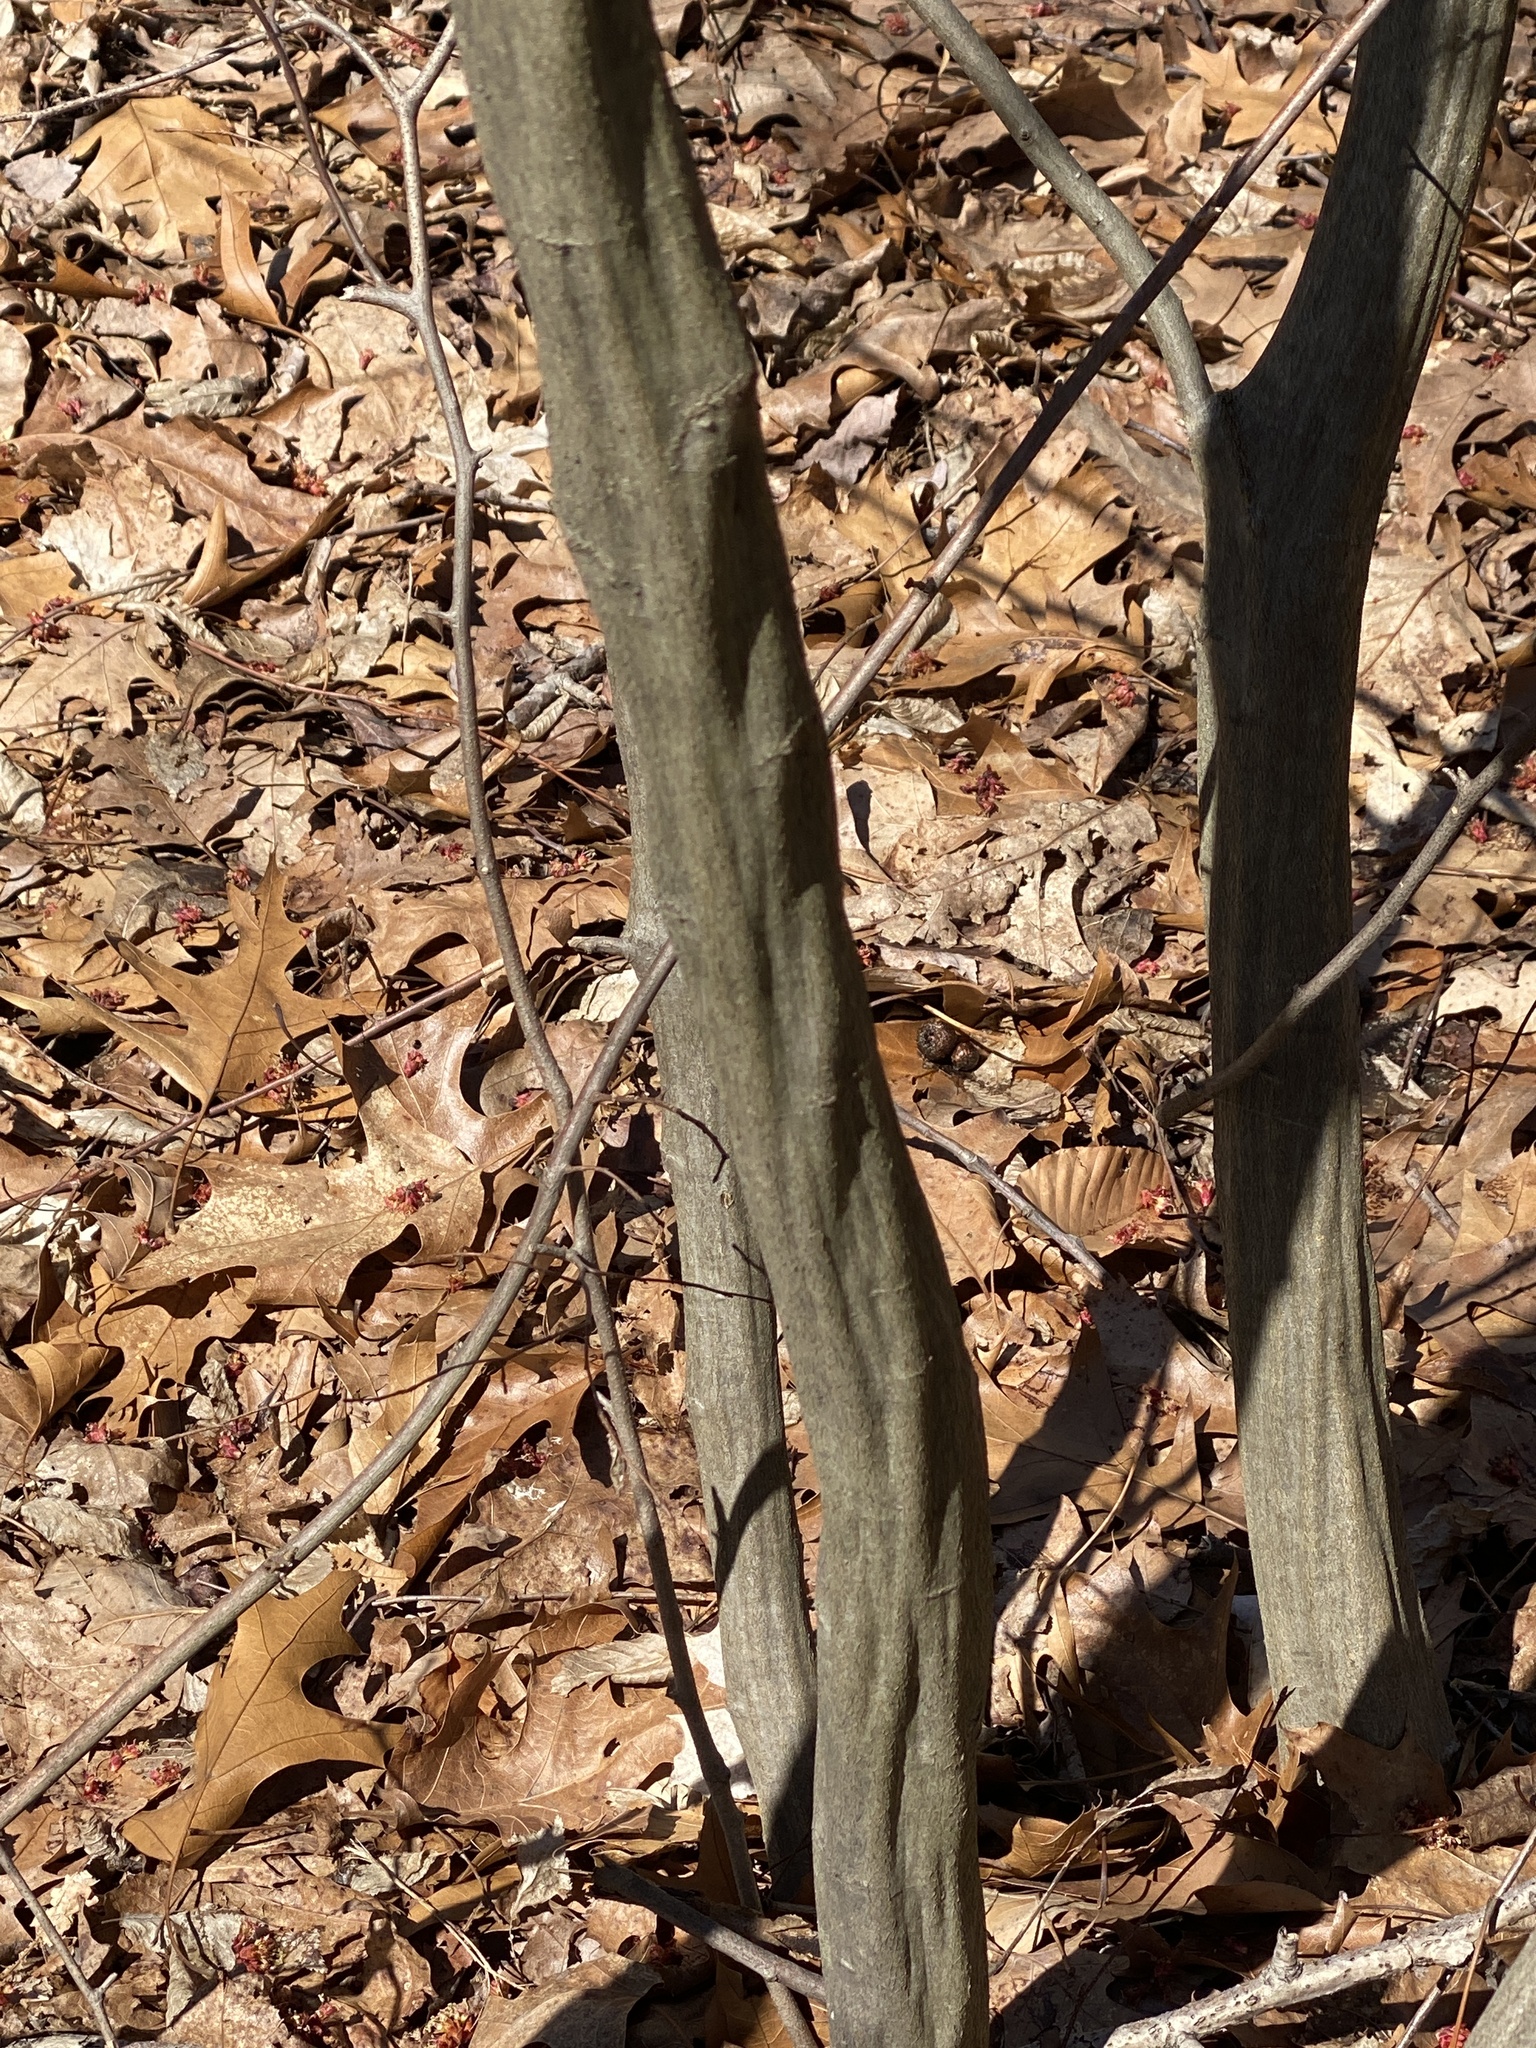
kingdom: Plantae
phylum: Tracheophyta
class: Magnoliopsida
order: Fagales
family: Betulaceae
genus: Carpinus
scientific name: Carpinus caroliniana
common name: American hornbeam
